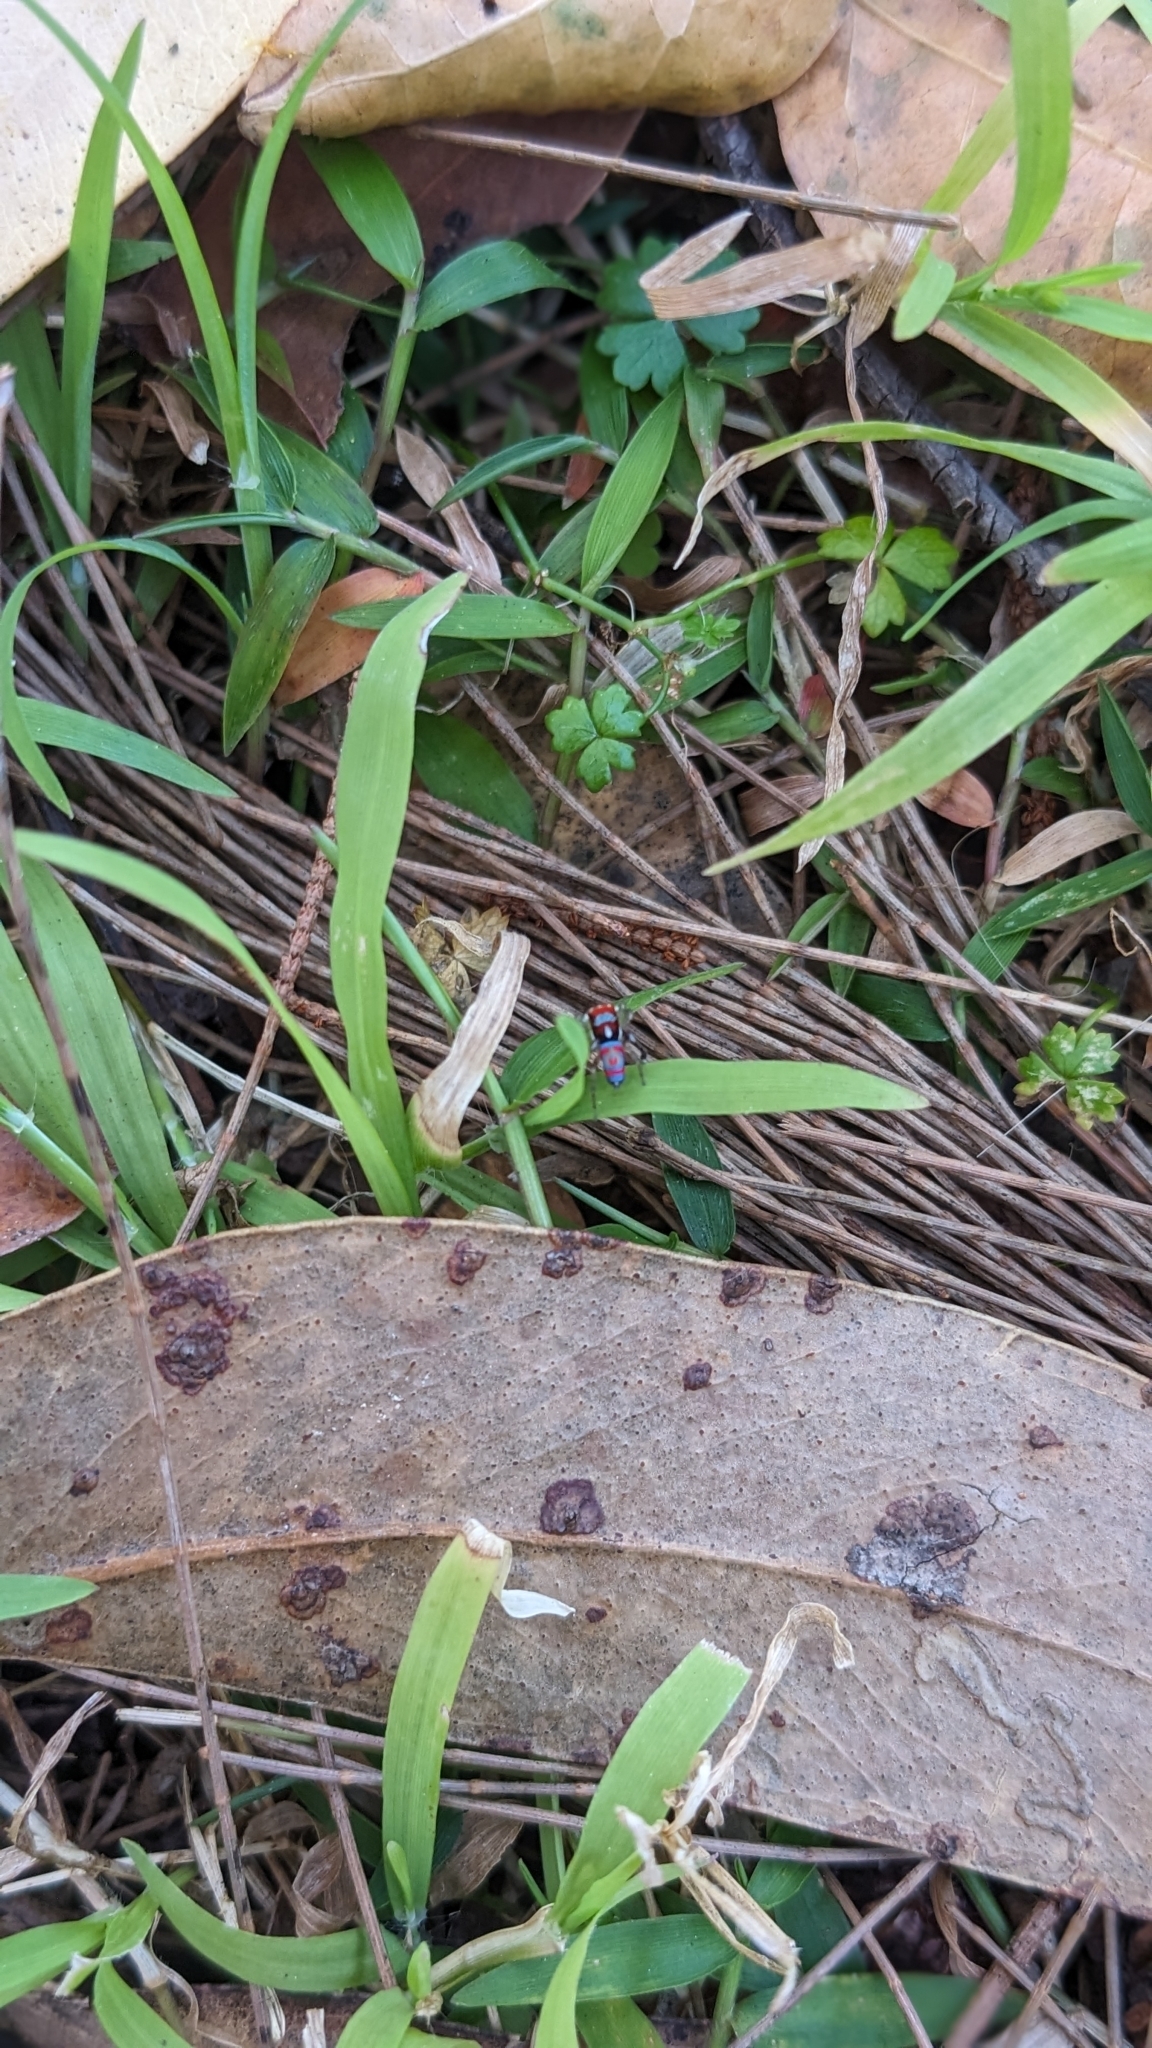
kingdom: Animalia
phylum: Arthropoda
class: Arachnida
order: Araneae
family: Salticidae
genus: Maratus
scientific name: Maratus splendens
